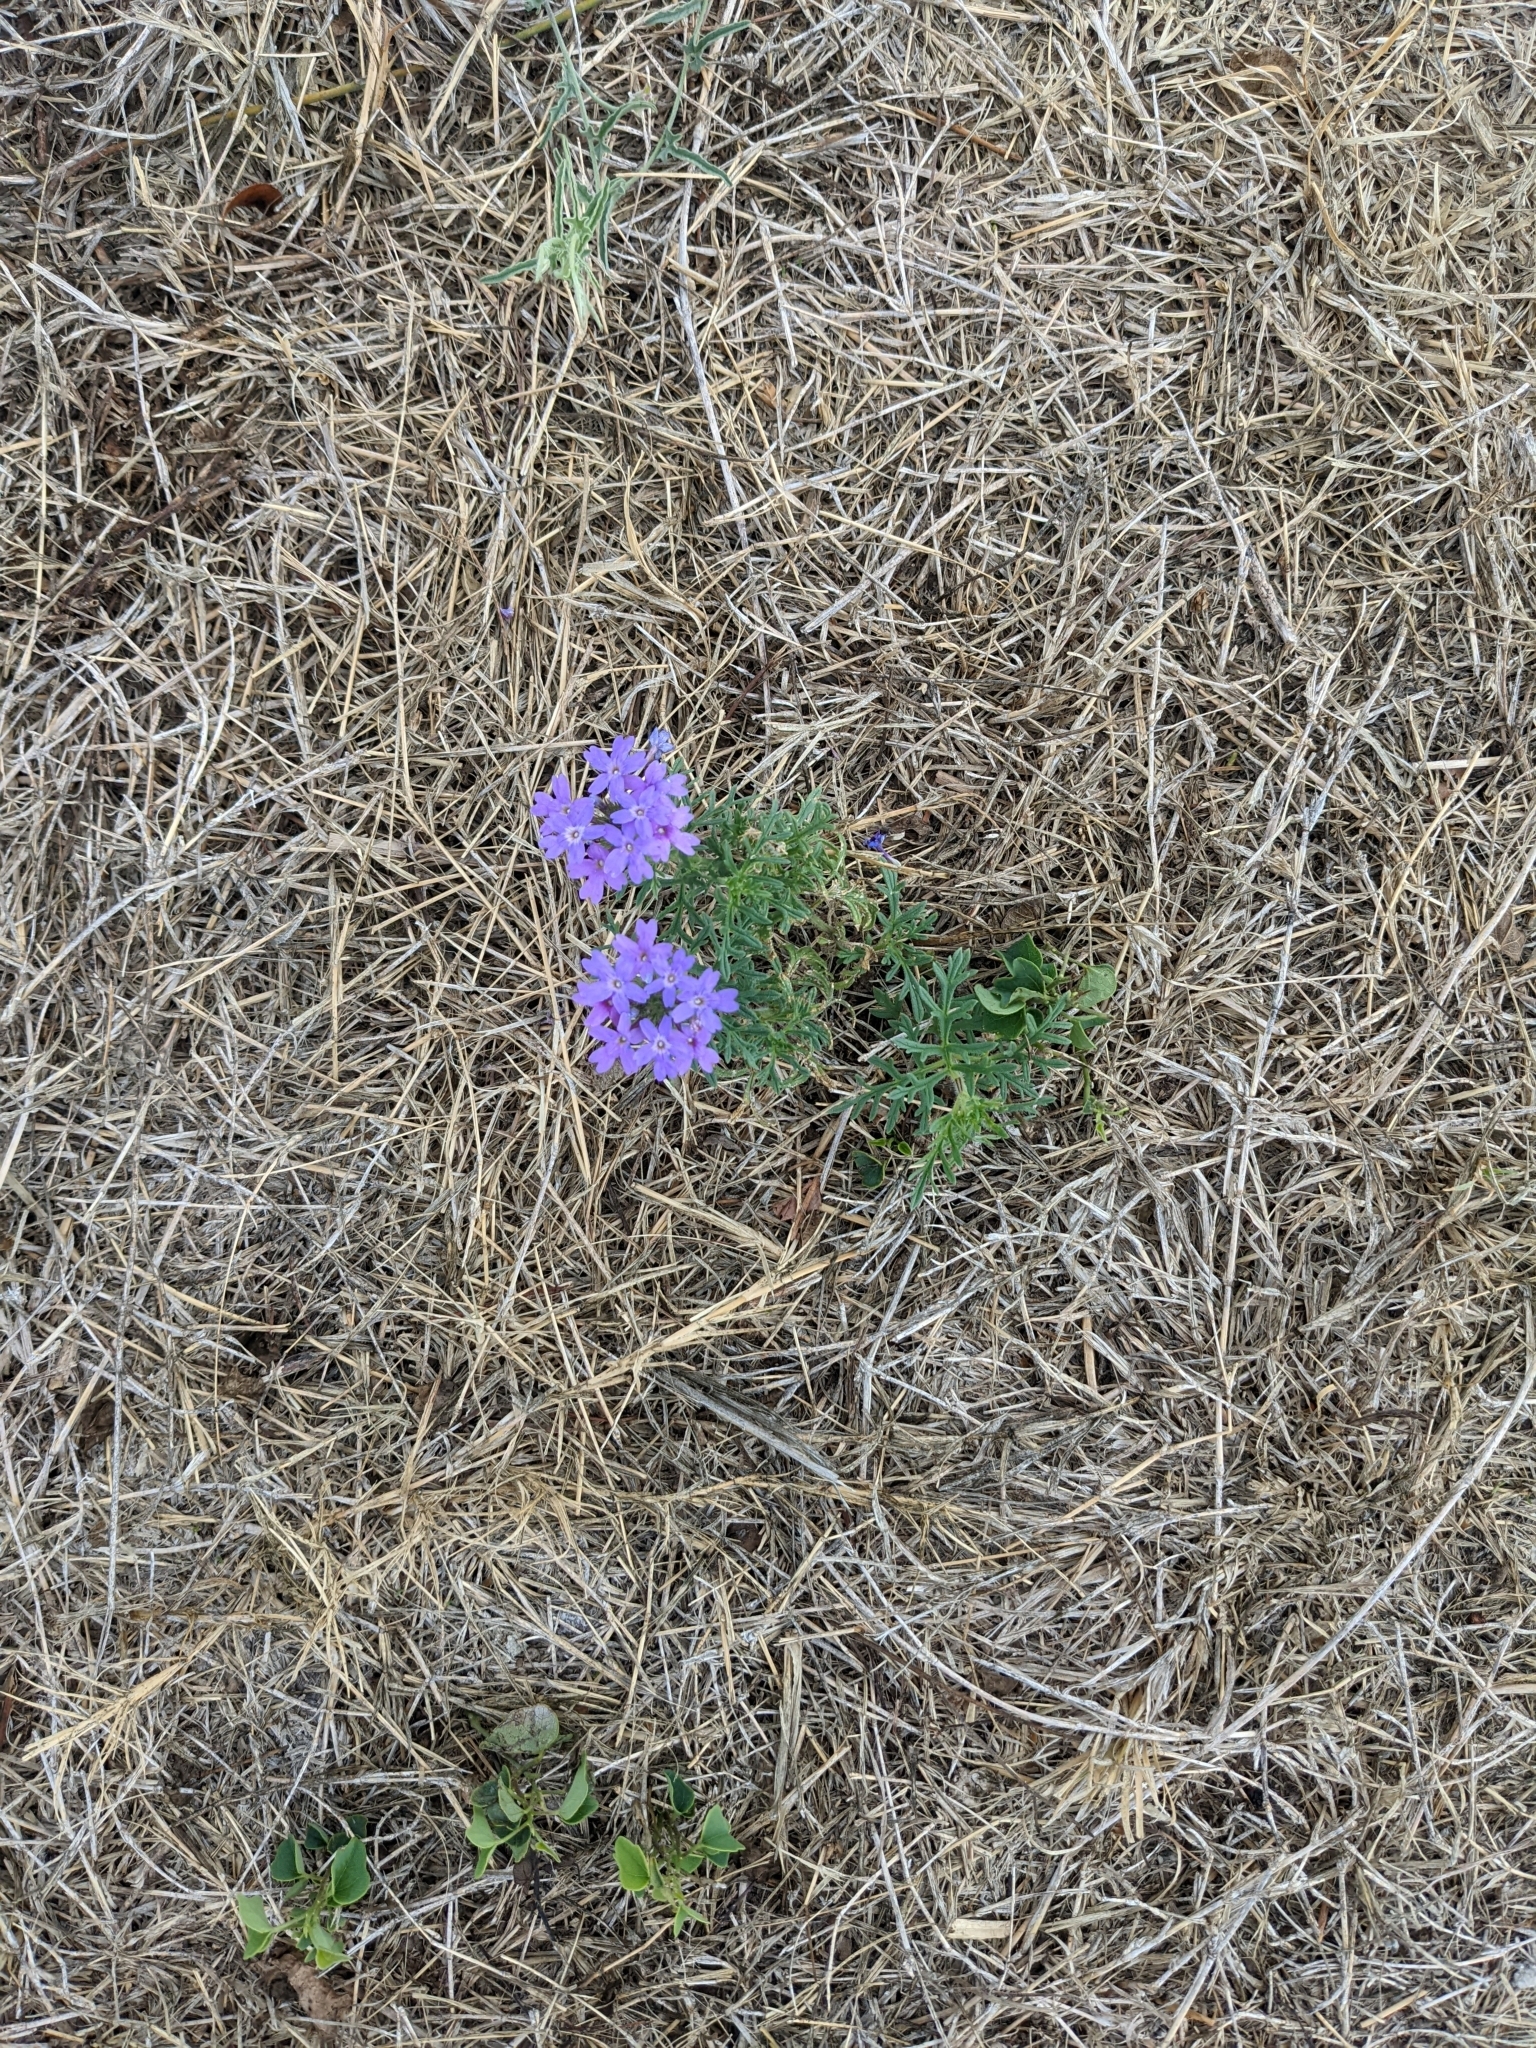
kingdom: Plantae
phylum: Tracheophyta
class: Magnoliopsida
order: Lamiales
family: Verbenaceae
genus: Verbena
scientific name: Verbena bipinnatifida
